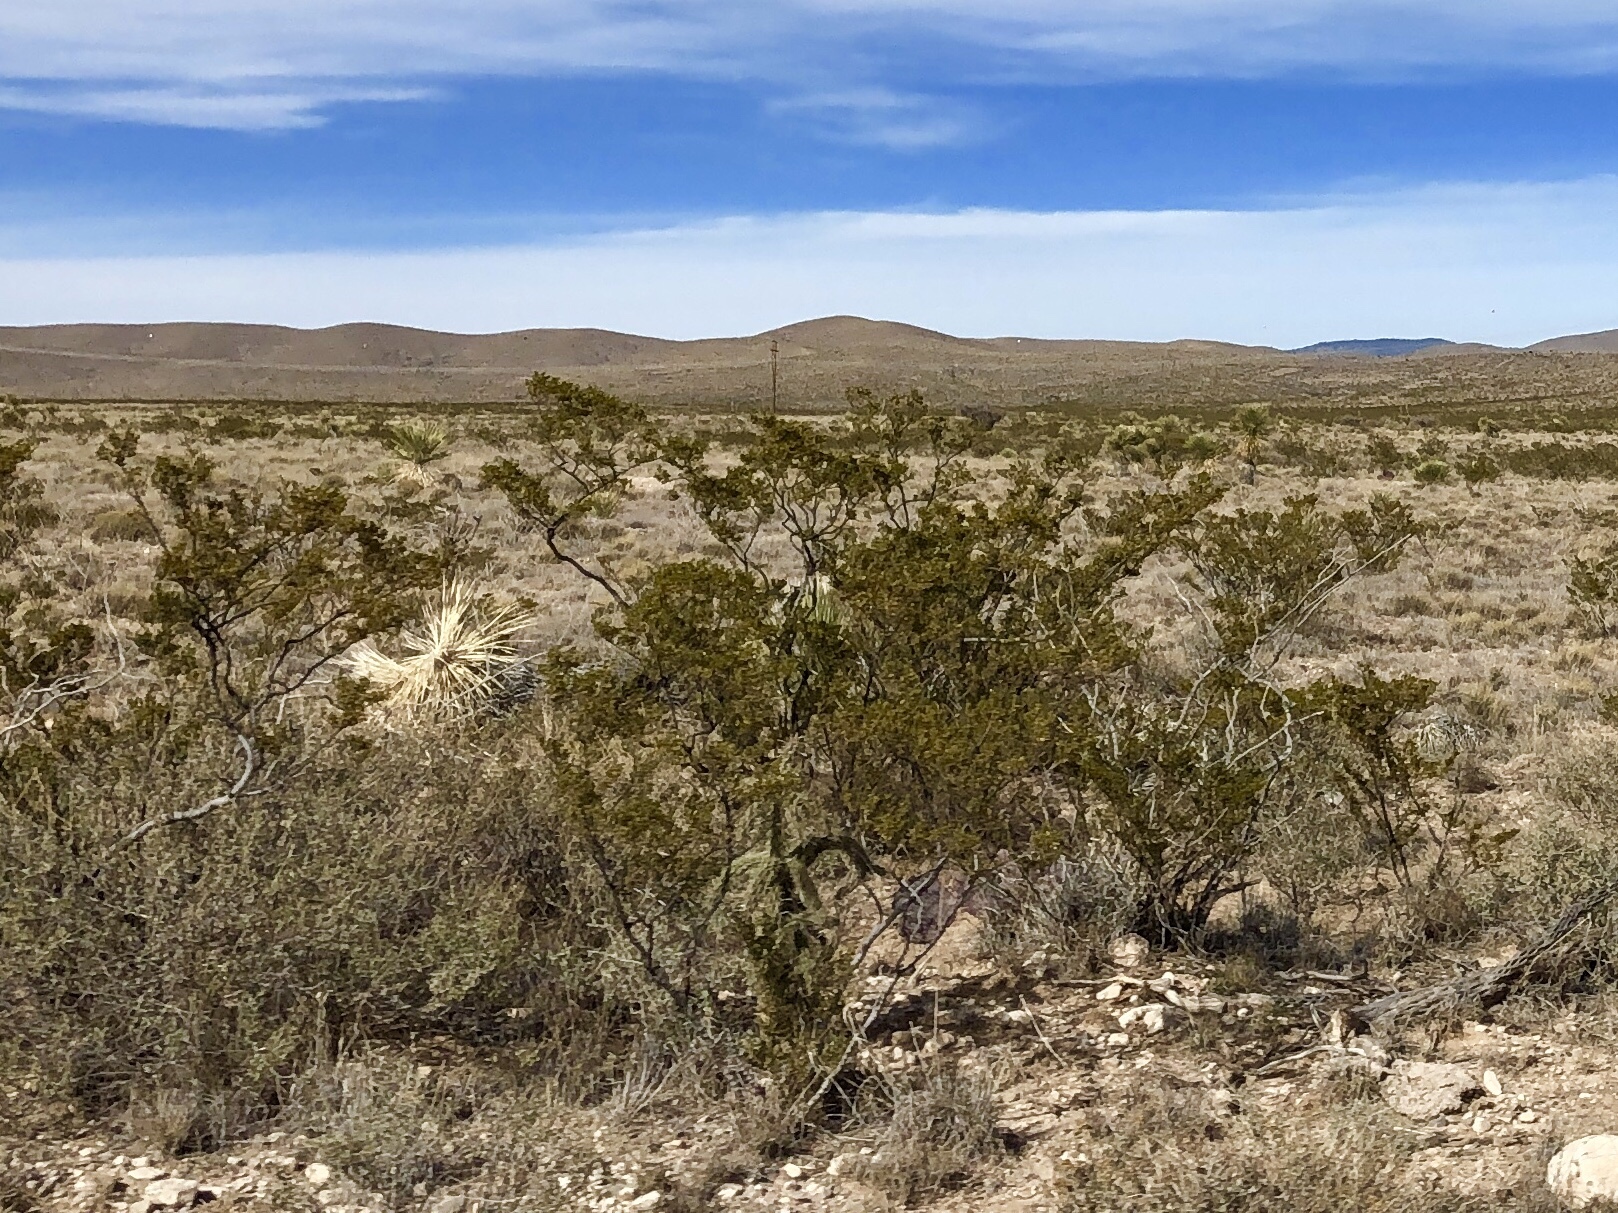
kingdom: Plantae
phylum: Tracheophyta
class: Magnoliopsida
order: Zygophyllales
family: Zygophyllaceae
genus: Larrea
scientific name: Larrea tridentata
